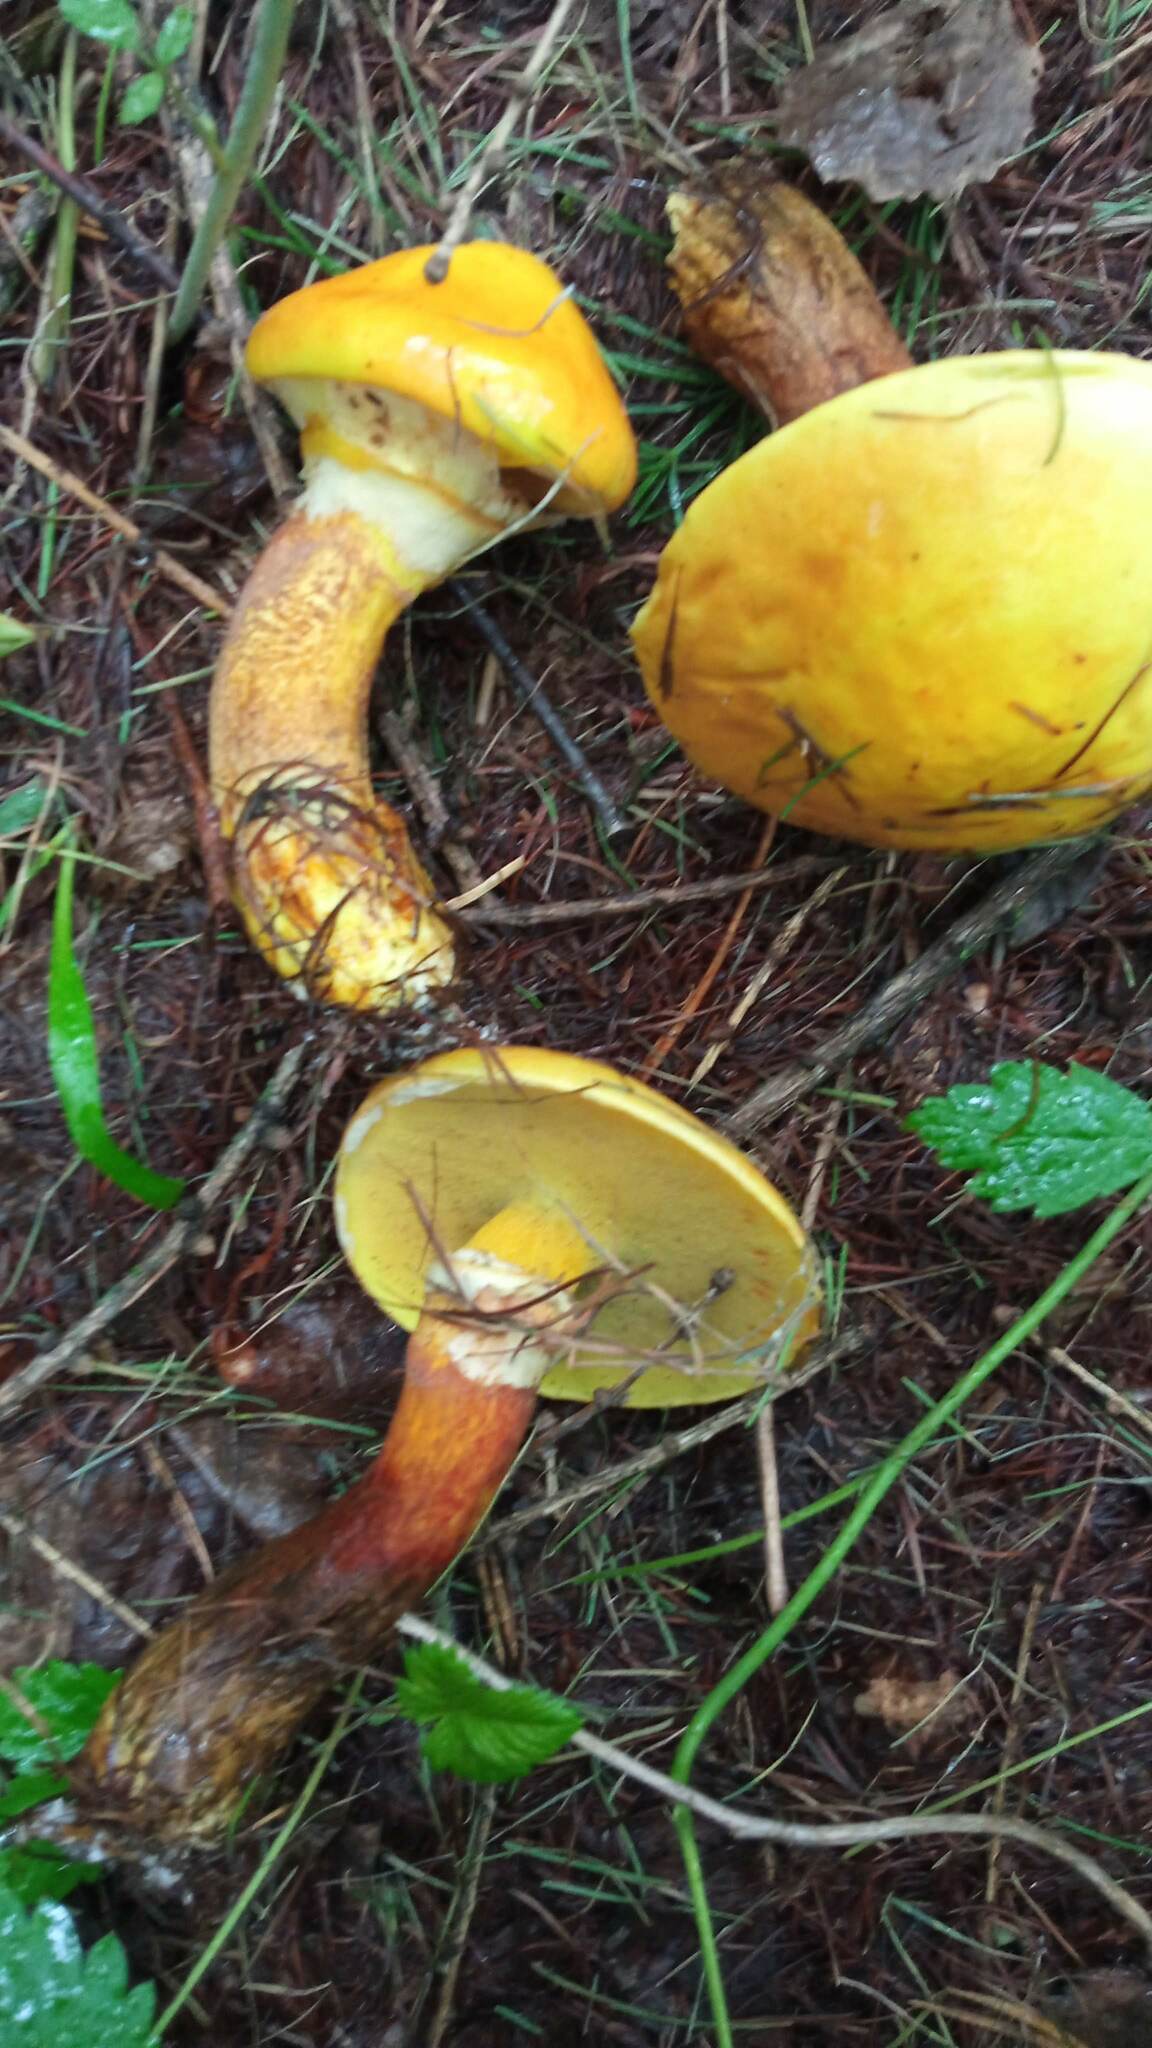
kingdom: Fungi
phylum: Basidiomycota
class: Agaricomycetes
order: Boletales
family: Suillaceae
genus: Suillus
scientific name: Suillus grevillei
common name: Larch bolete
